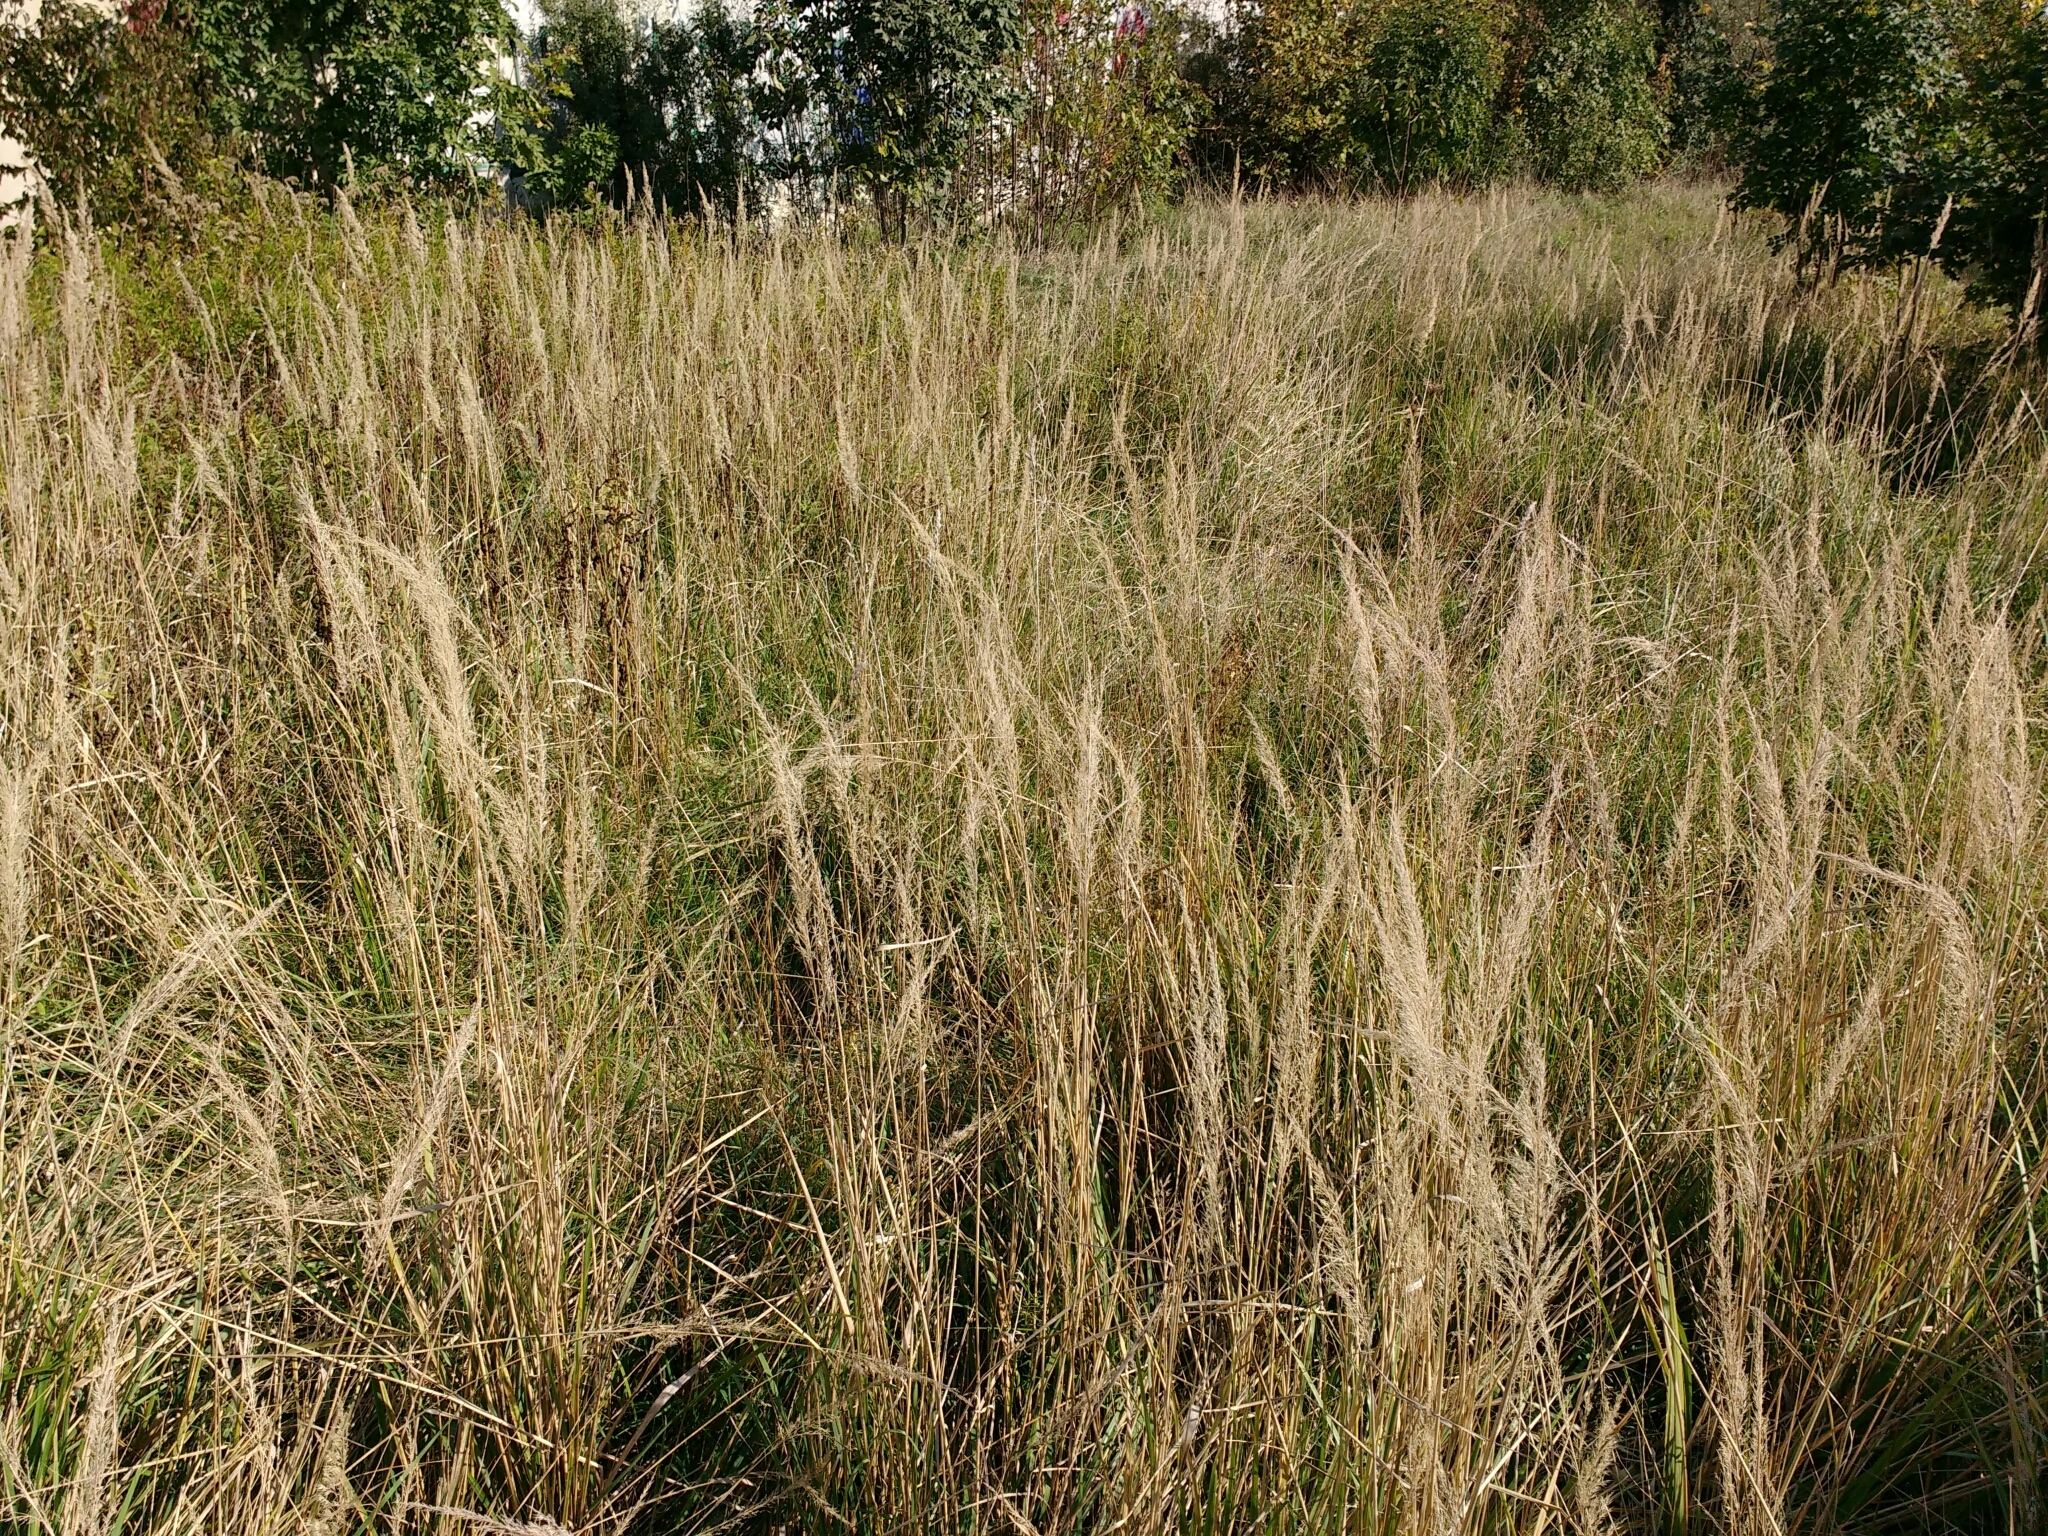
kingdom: Plantae
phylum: Tracheophyta
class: Liliopsida
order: Poales
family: Poaceae
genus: Calamagrostis
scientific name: Calamagrostis epigejos
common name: Wood small-reed
